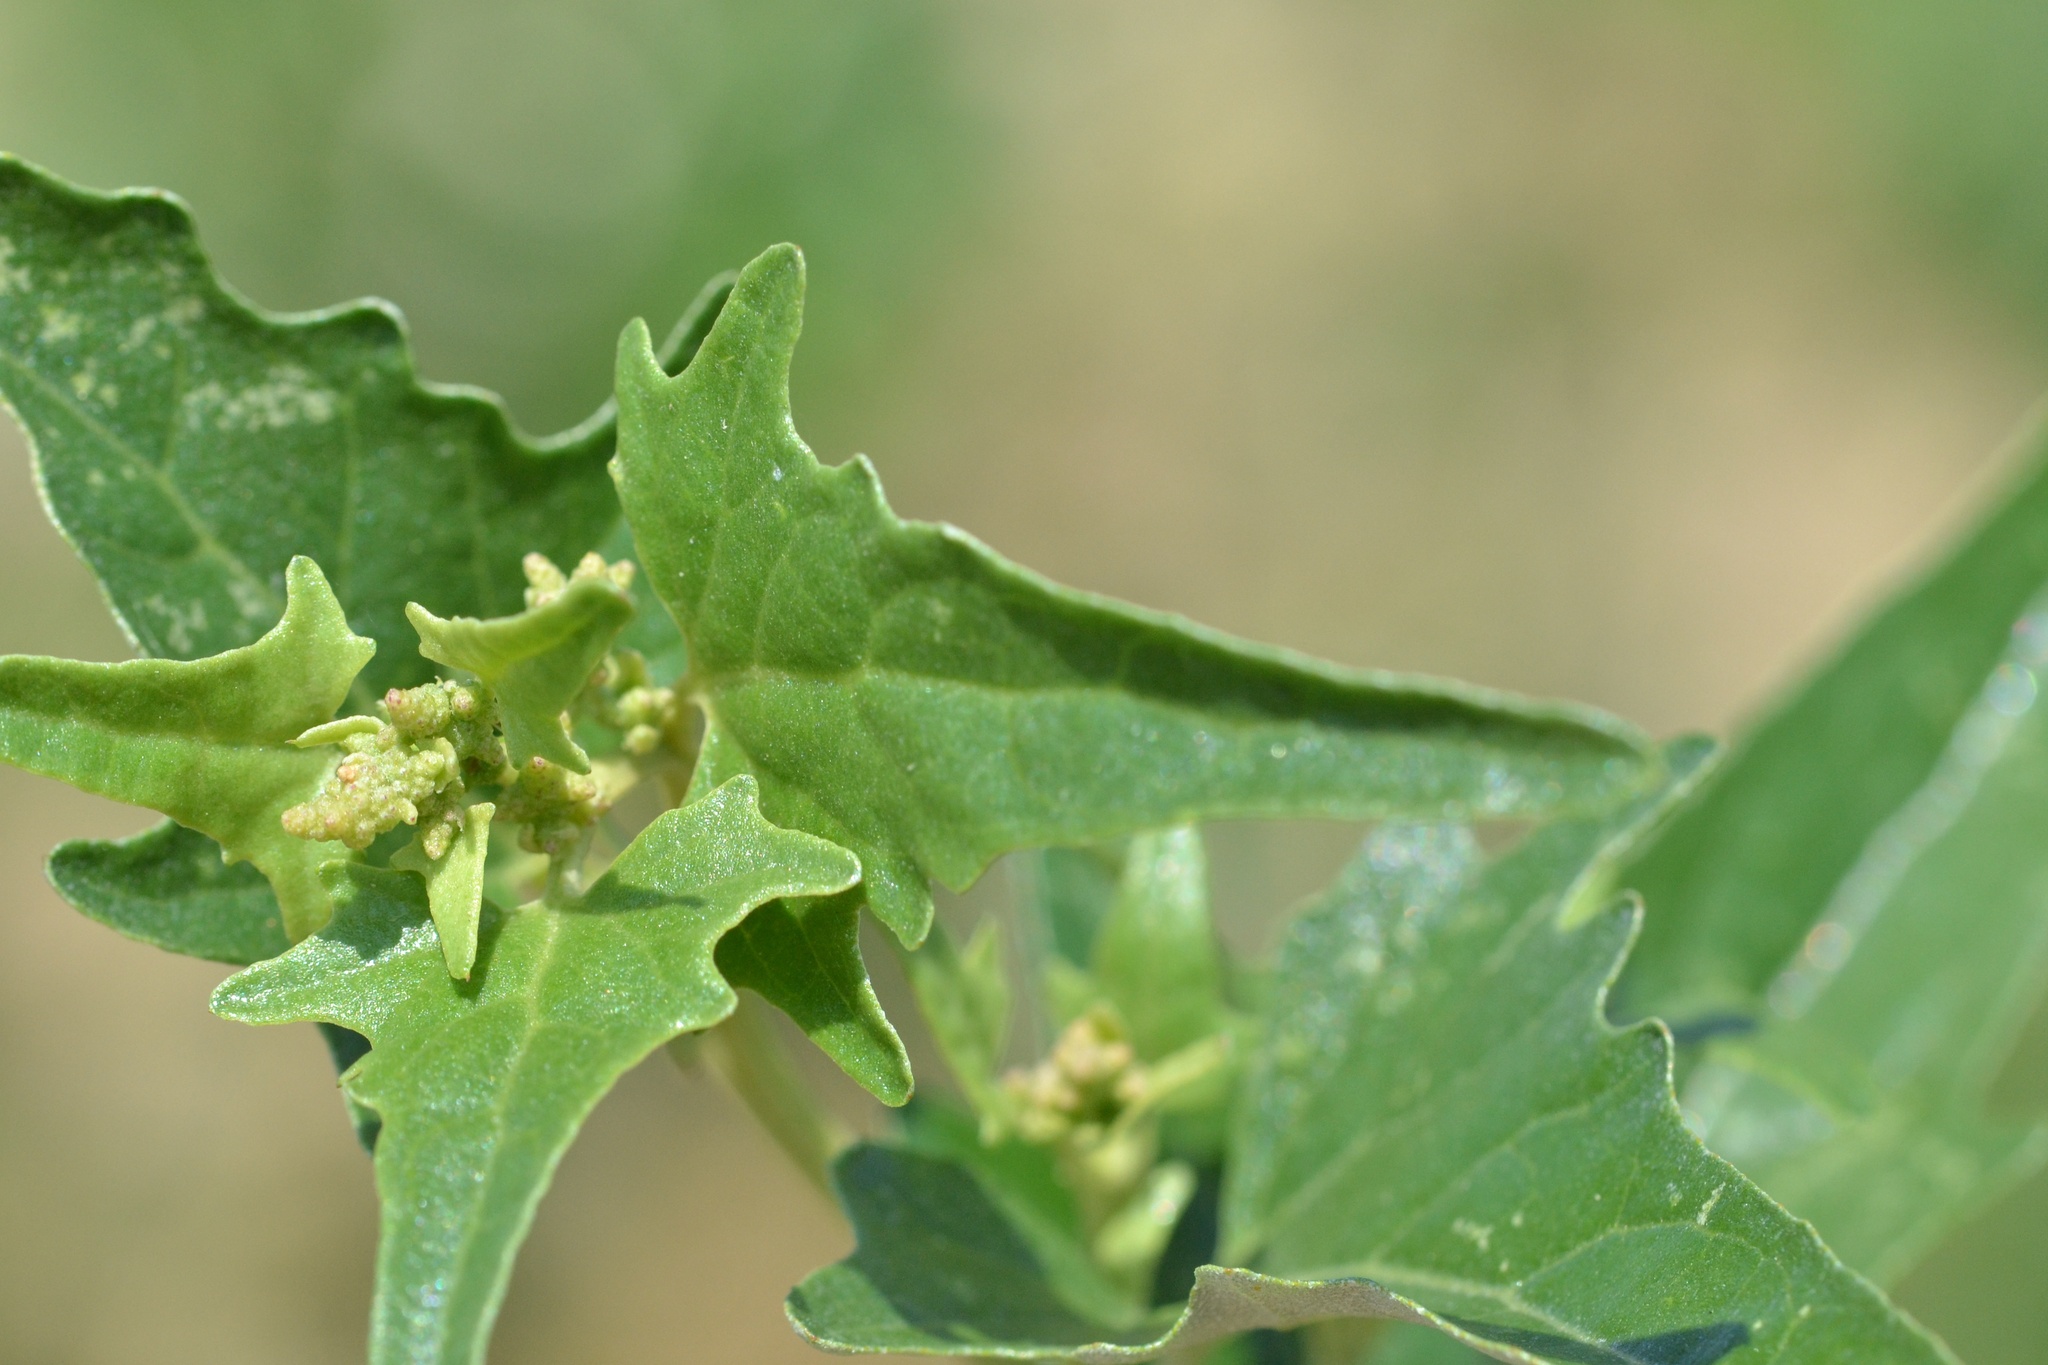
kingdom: Plantae
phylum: Tracheophyta
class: Magnoliopsida
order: Caryophyllales
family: Amaranthaceae
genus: Atriplex
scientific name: Atriplex sagittata
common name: Purple orache
